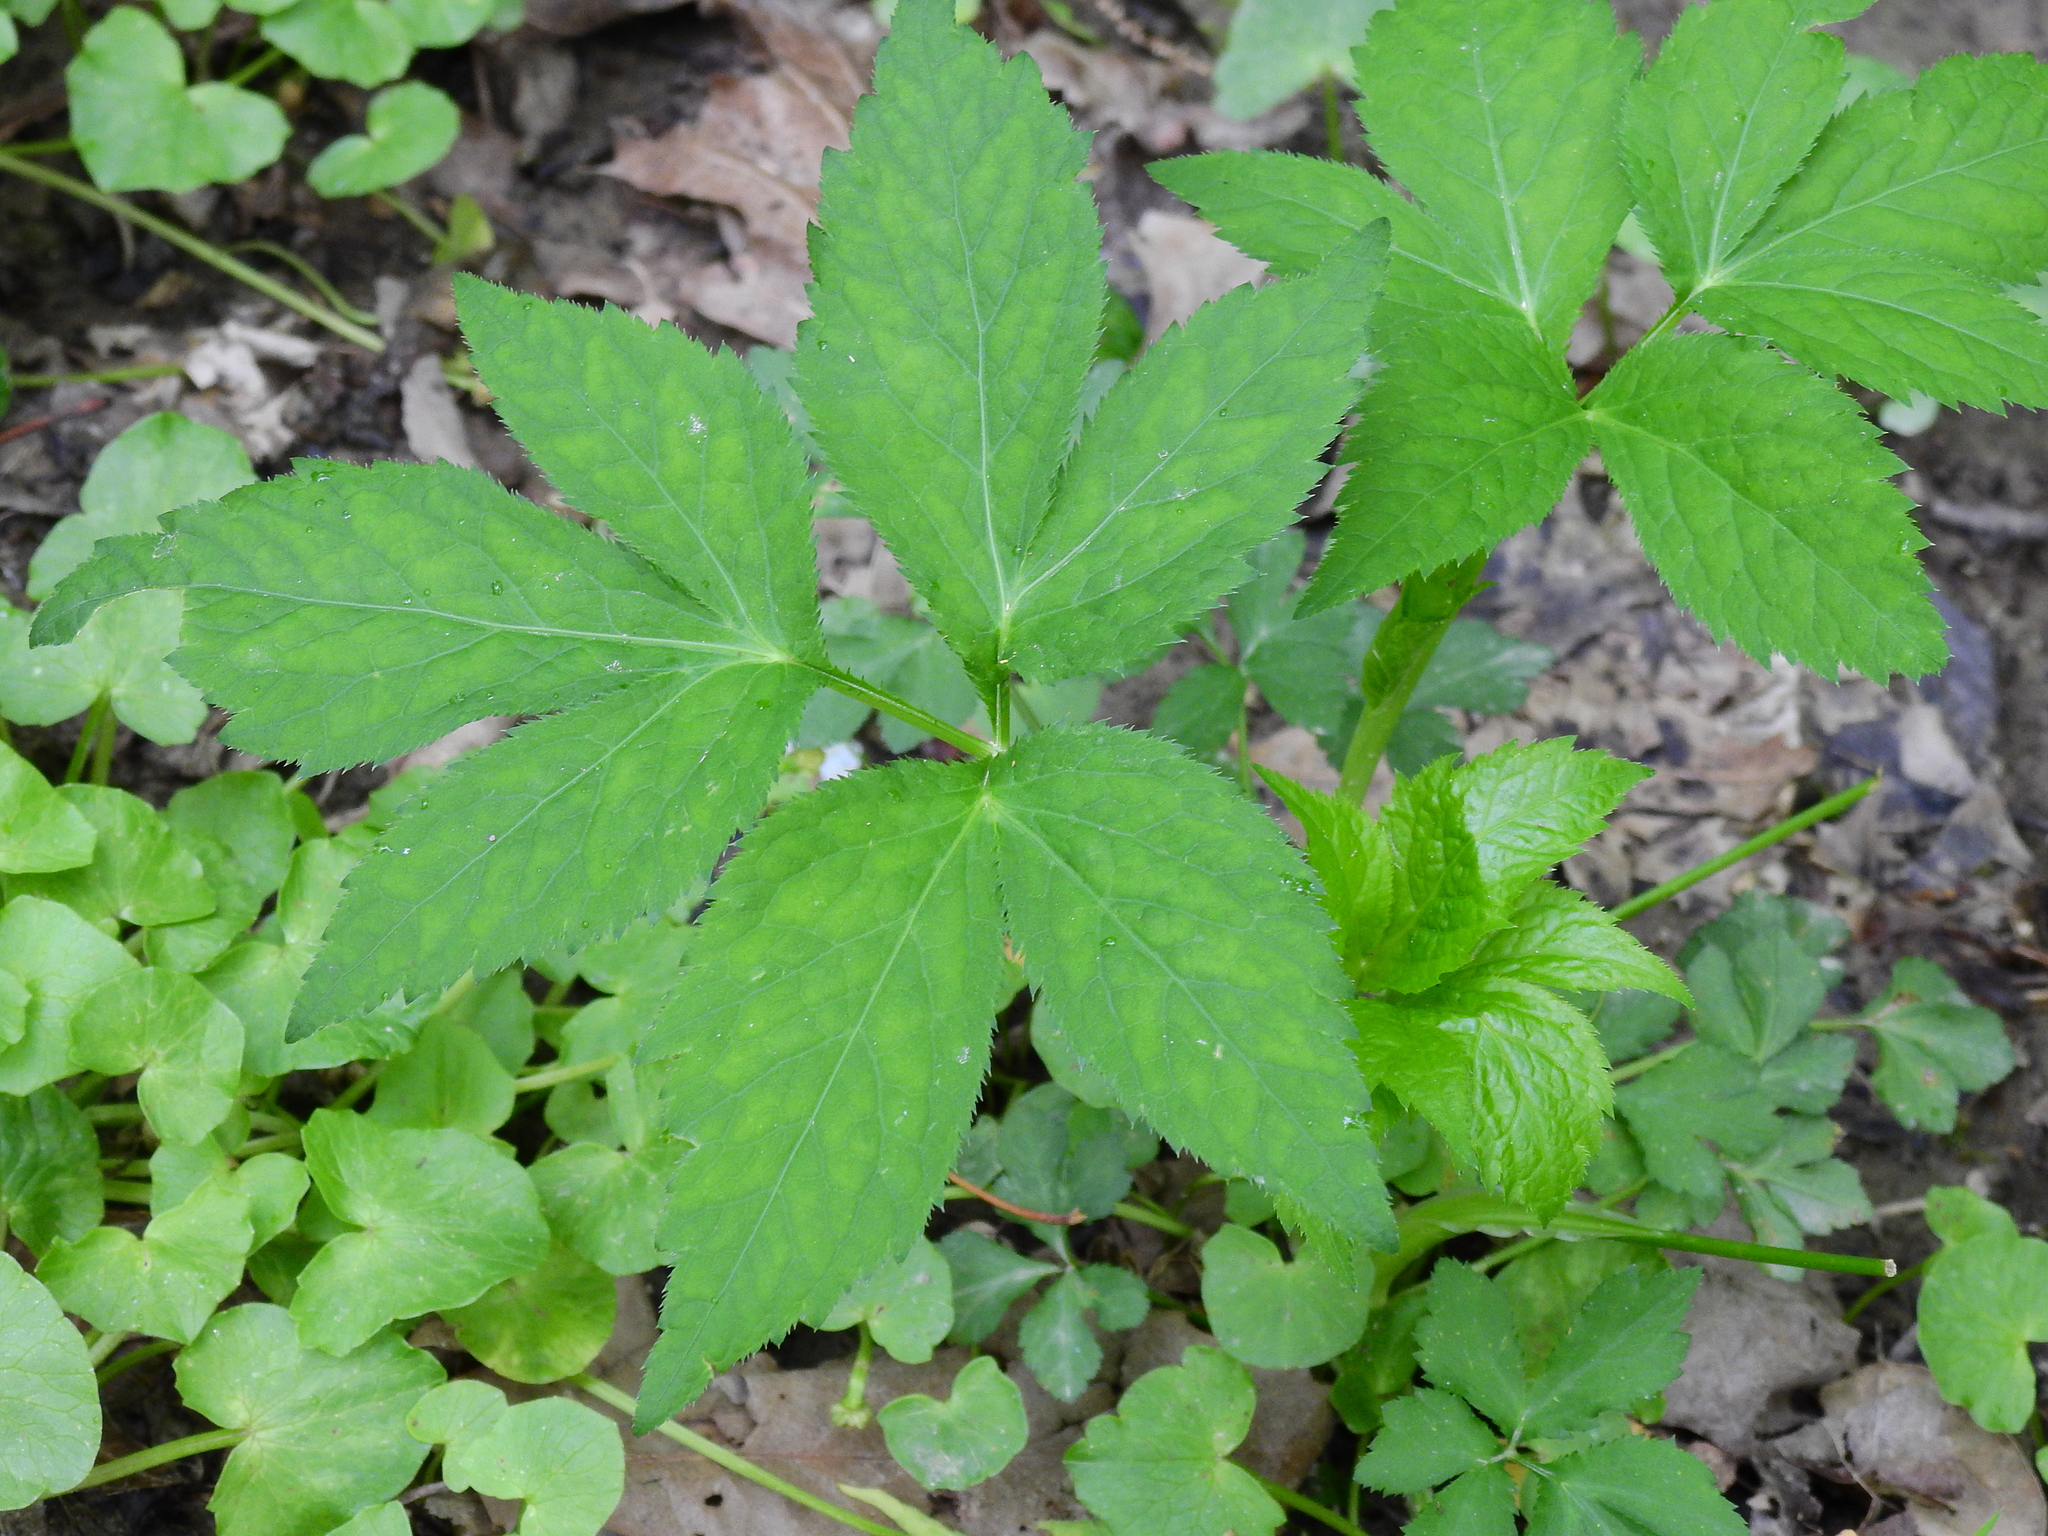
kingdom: Plantae
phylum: Tracheophyta
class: Magnoliopsida
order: Apiales
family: Apiaceae
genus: Cryptotaenia
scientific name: Cryptotaenia canadensis
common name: Honewort
